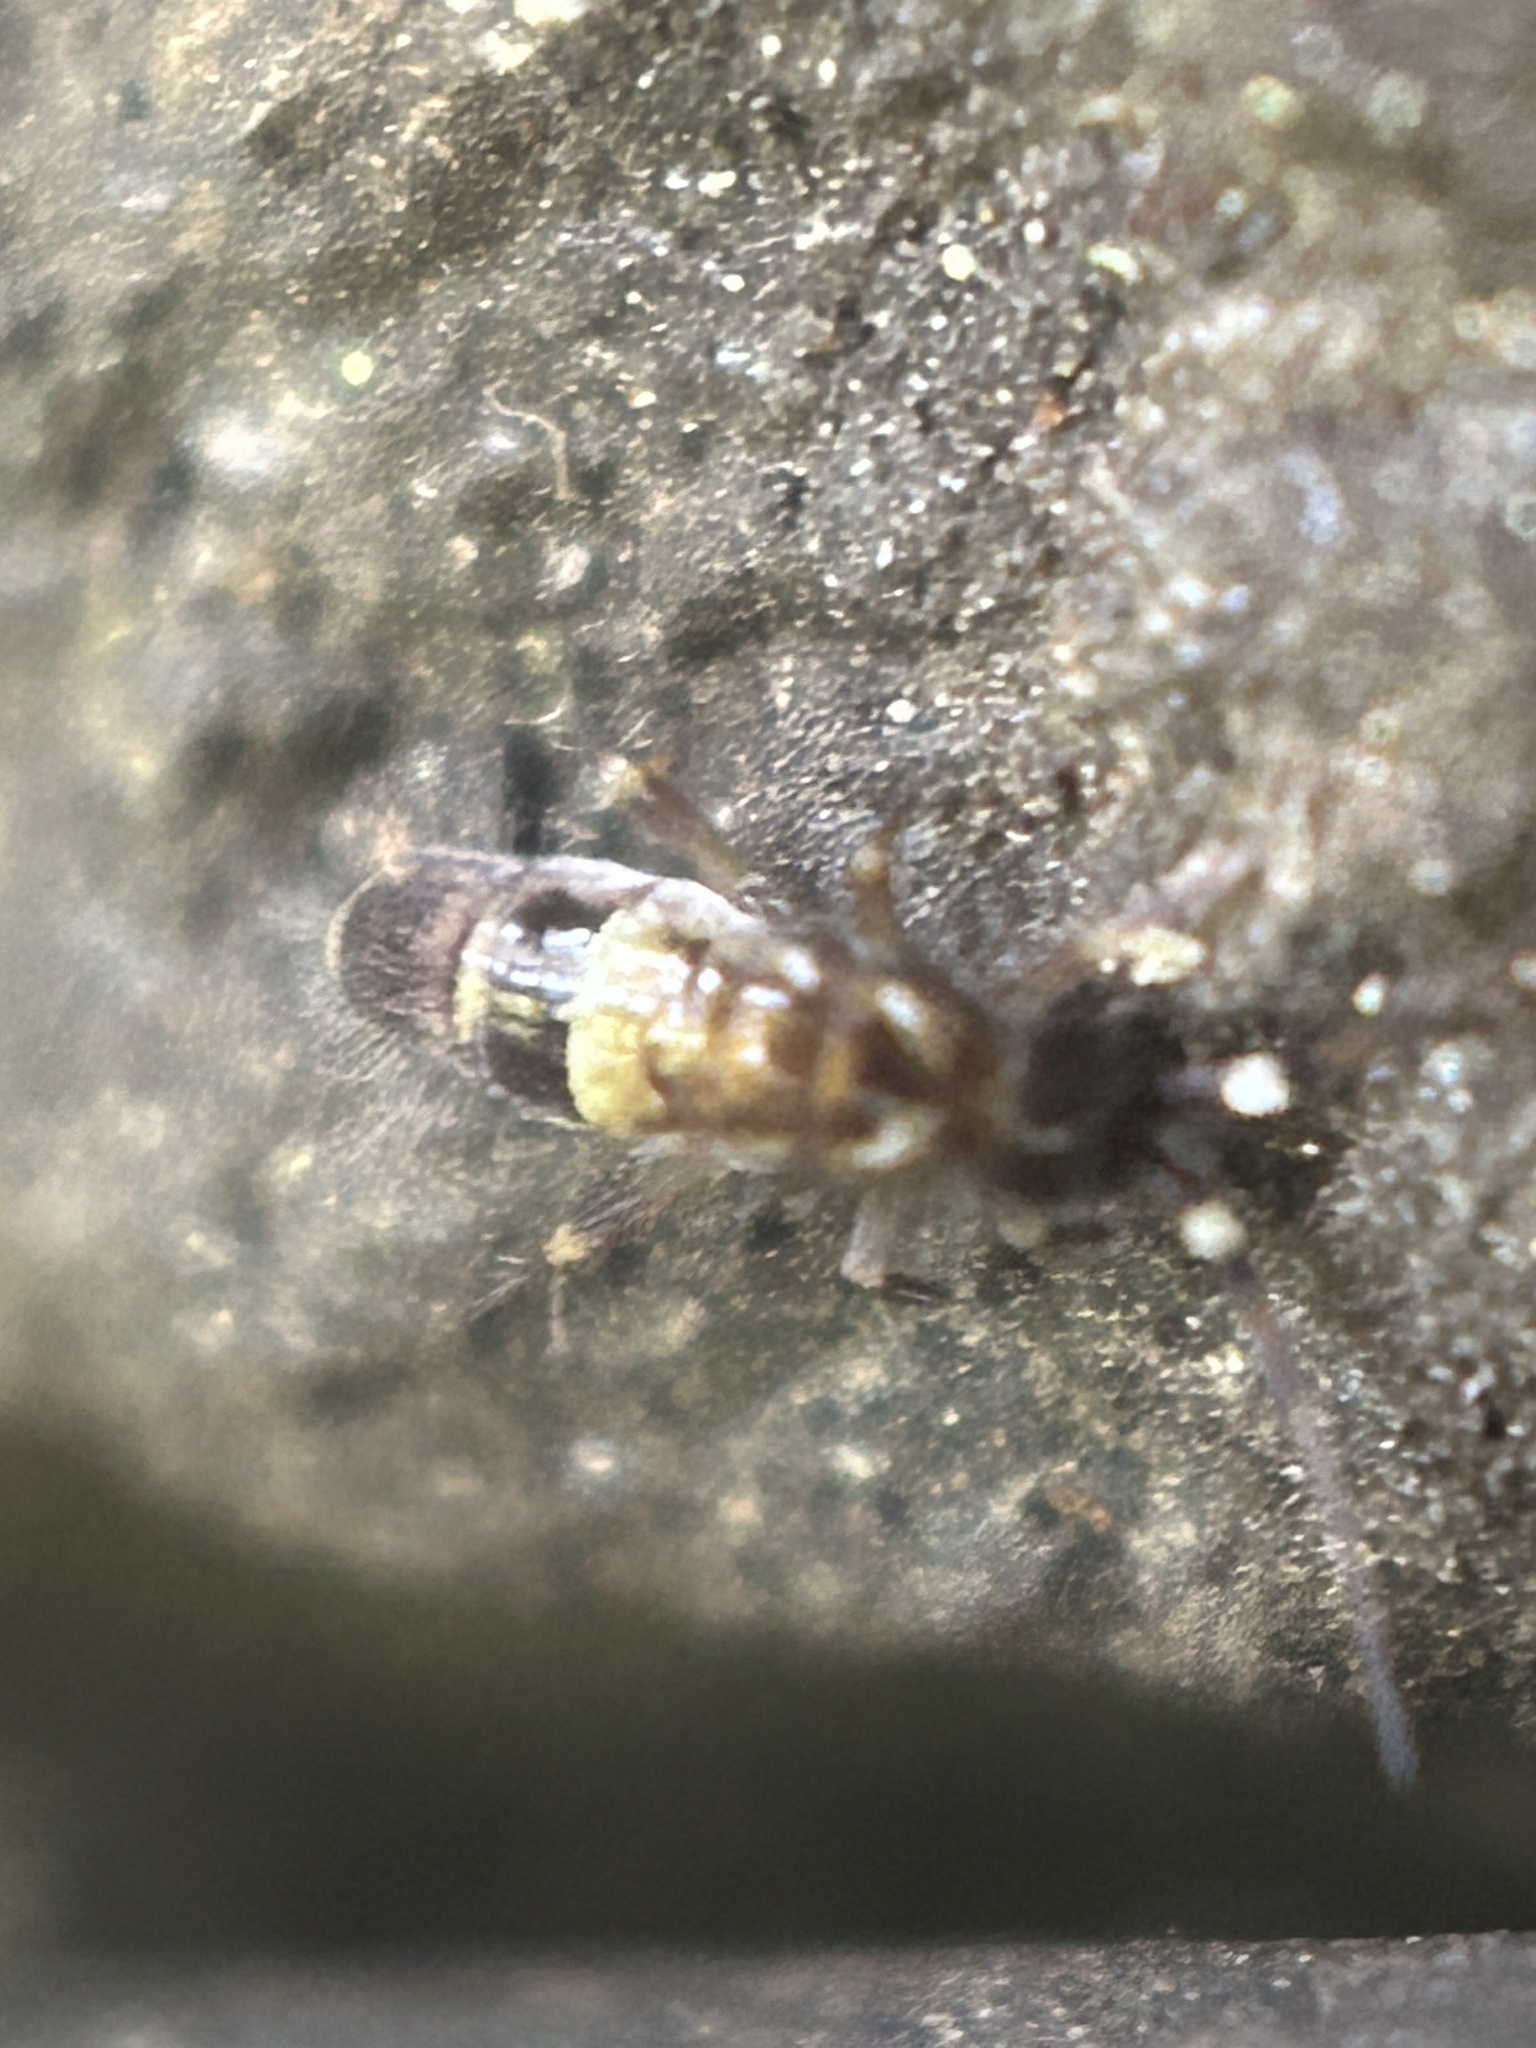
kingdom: Animalia
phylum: Arthropoda
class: Collembola
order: Entomobryomorpha
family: Orchesellidae
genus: Orchesella
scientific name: Orchesella cincta
